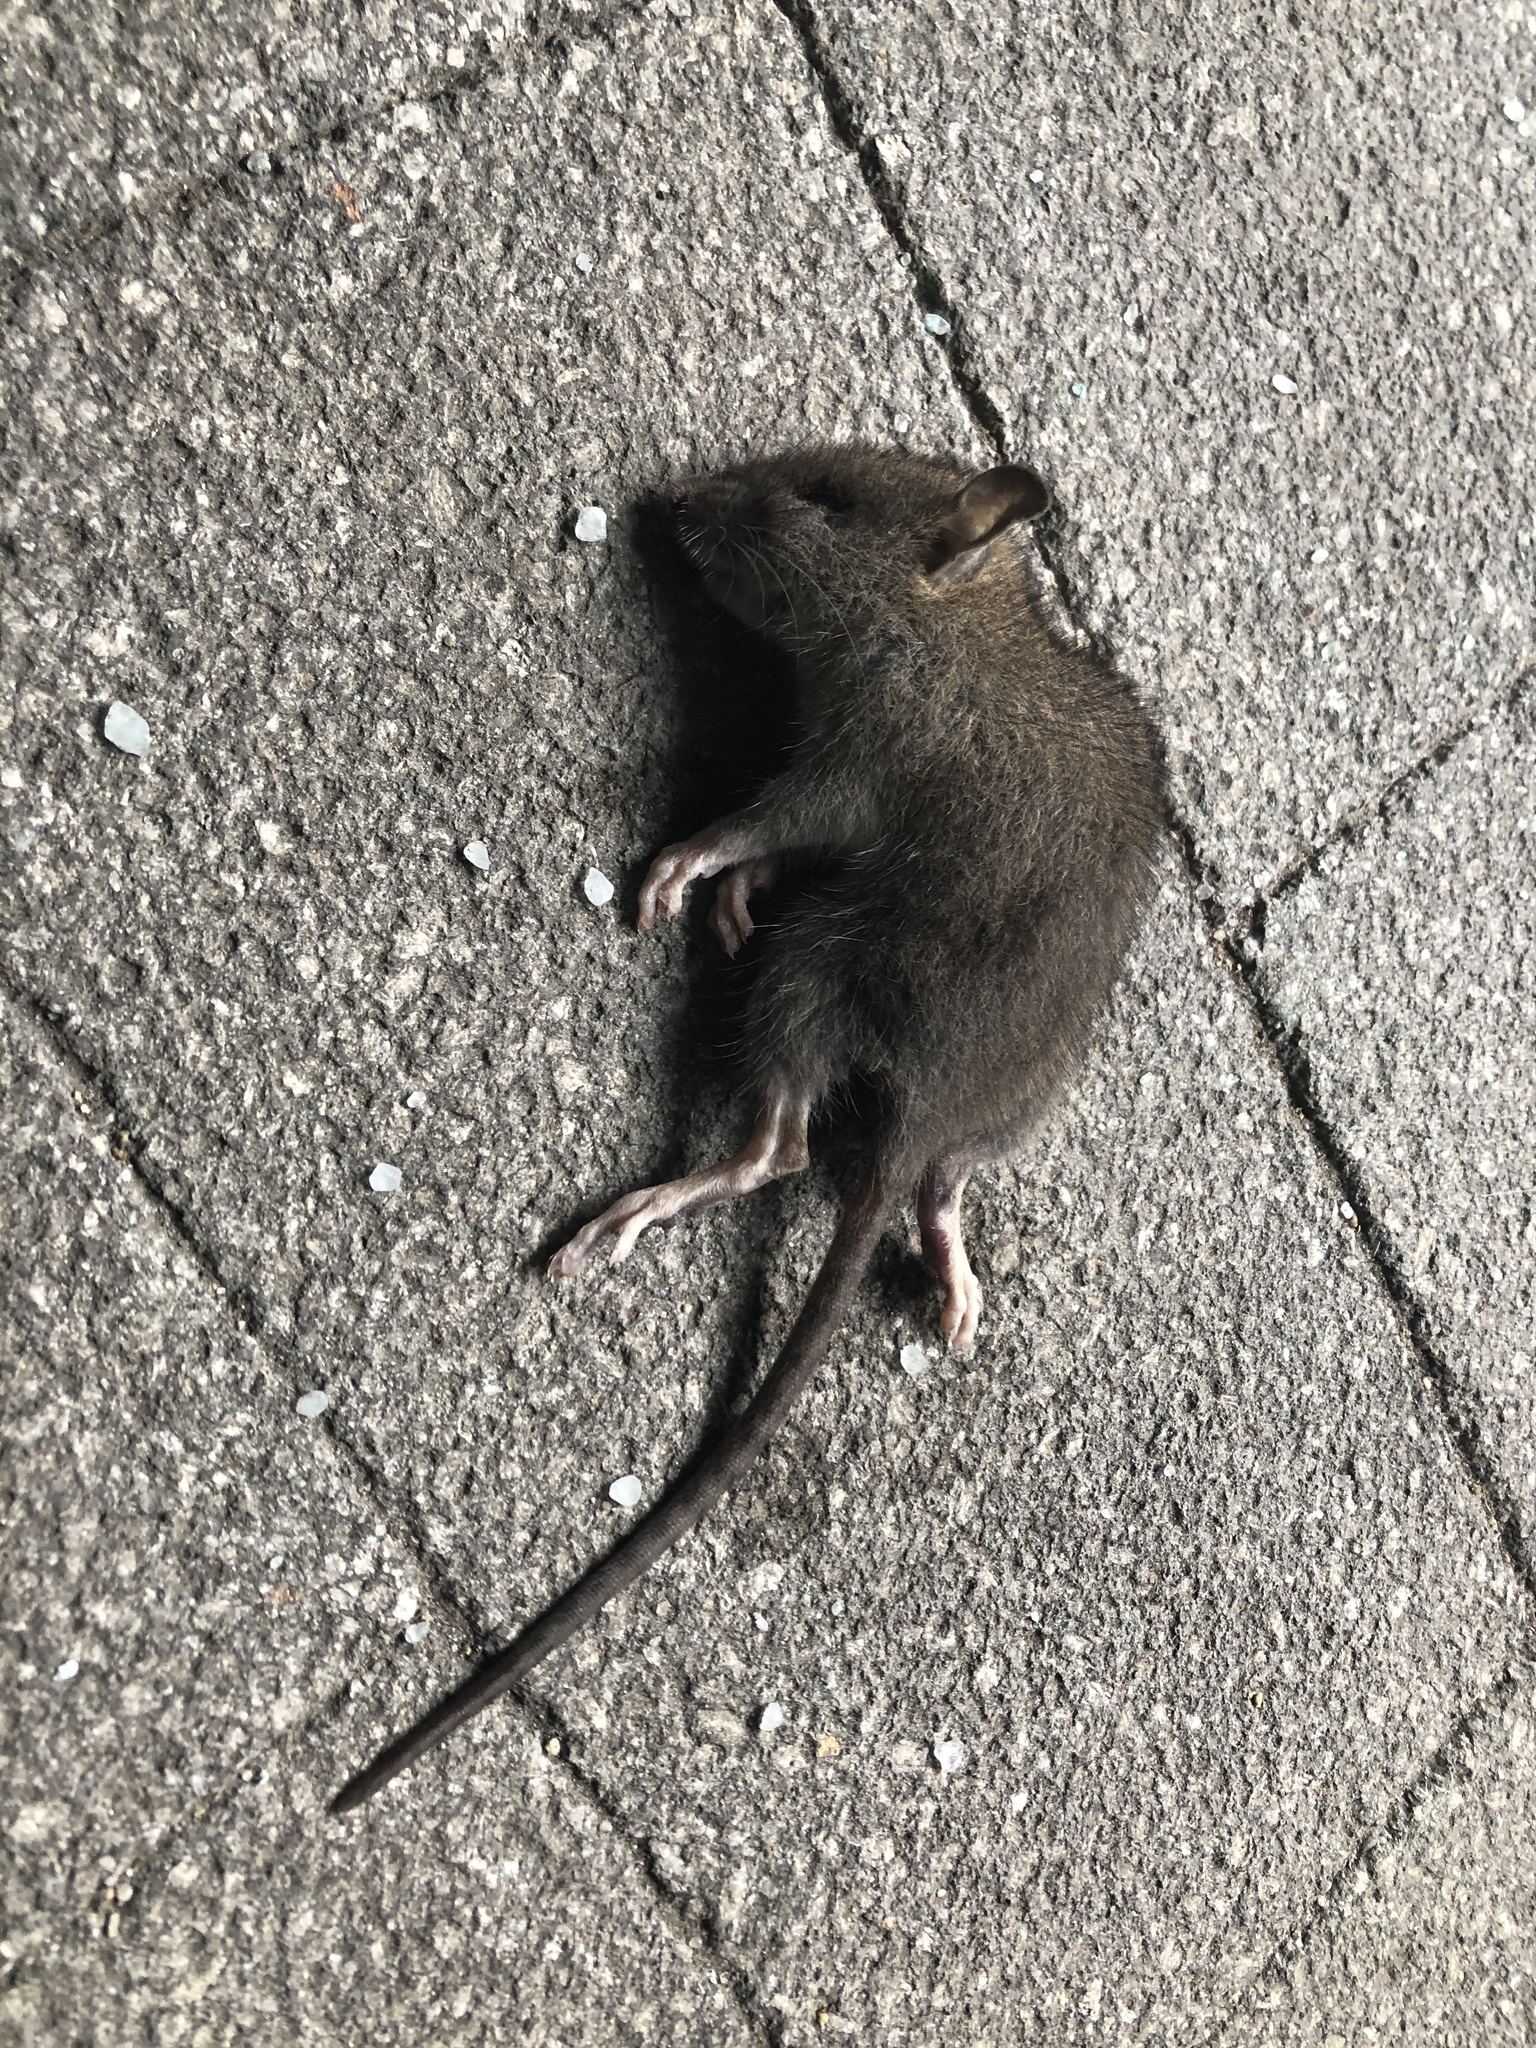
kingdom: Animalia
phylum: Chordata
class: Mammalia
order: Rodentia
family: Muridae
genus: Mus
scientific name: Mus musculus
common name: House mouse
